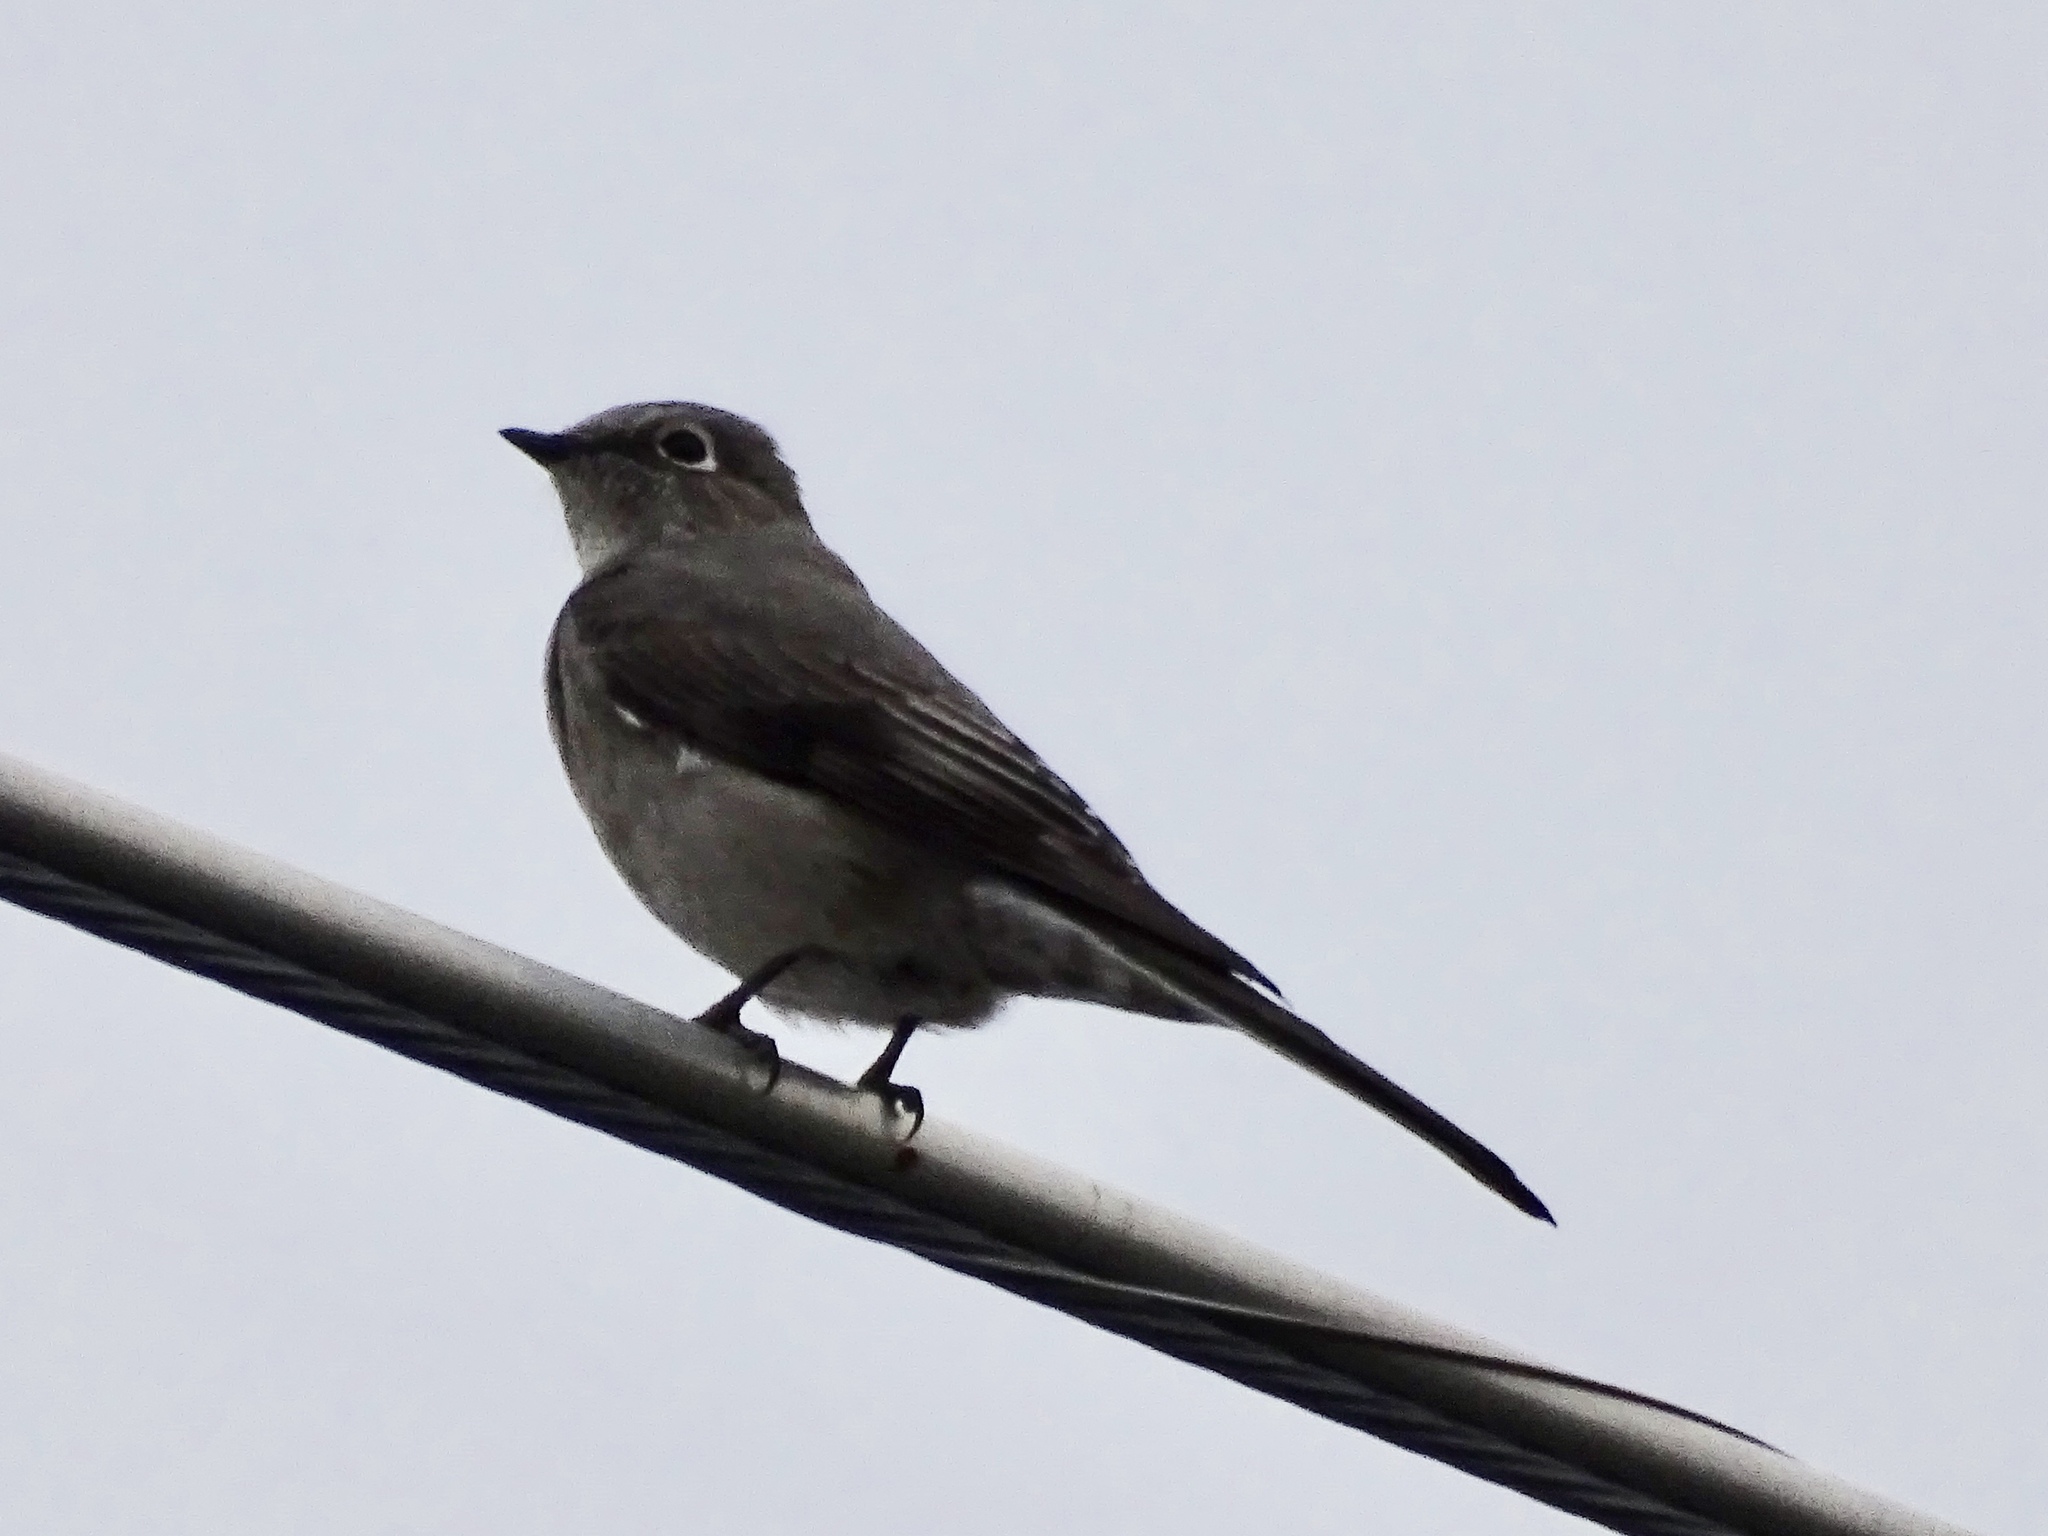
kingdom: Animalia
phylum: Chordata
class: Aves
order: Passeriformes
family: Turdidae
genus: Myadestes
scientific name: Myadestes townsendi
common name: Townsend's solitaire
